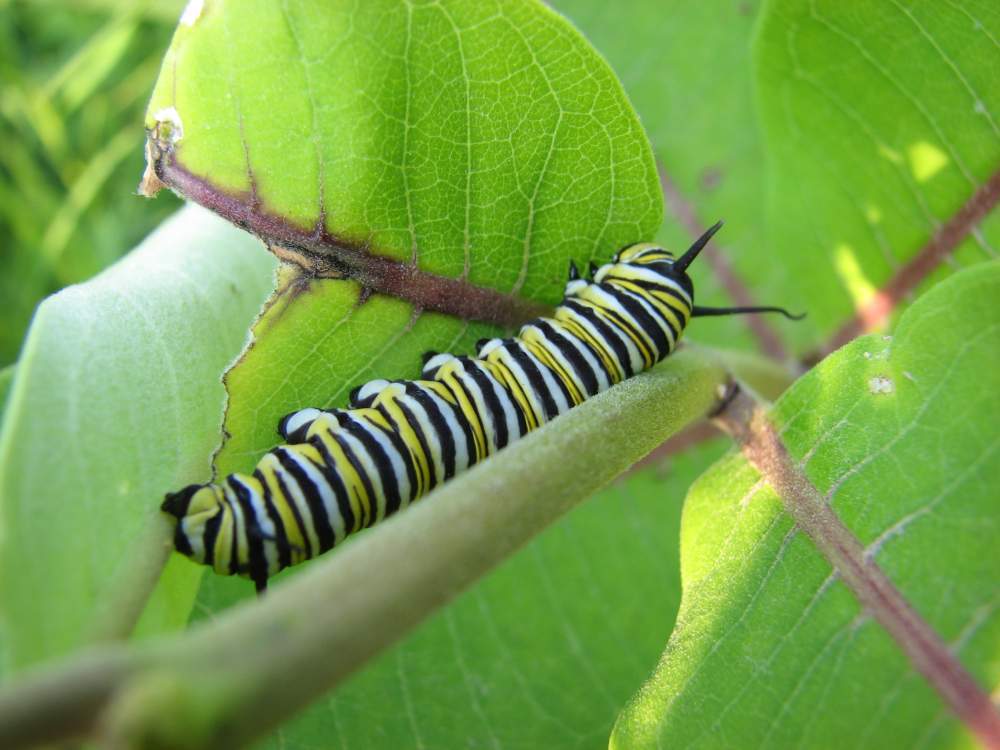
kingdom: Animalia
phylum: Arthropoda
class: Insecta
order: Lepidoptera
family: Nymphalidae
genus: Danaus
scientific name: Danaus plexippus
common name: Monarch
